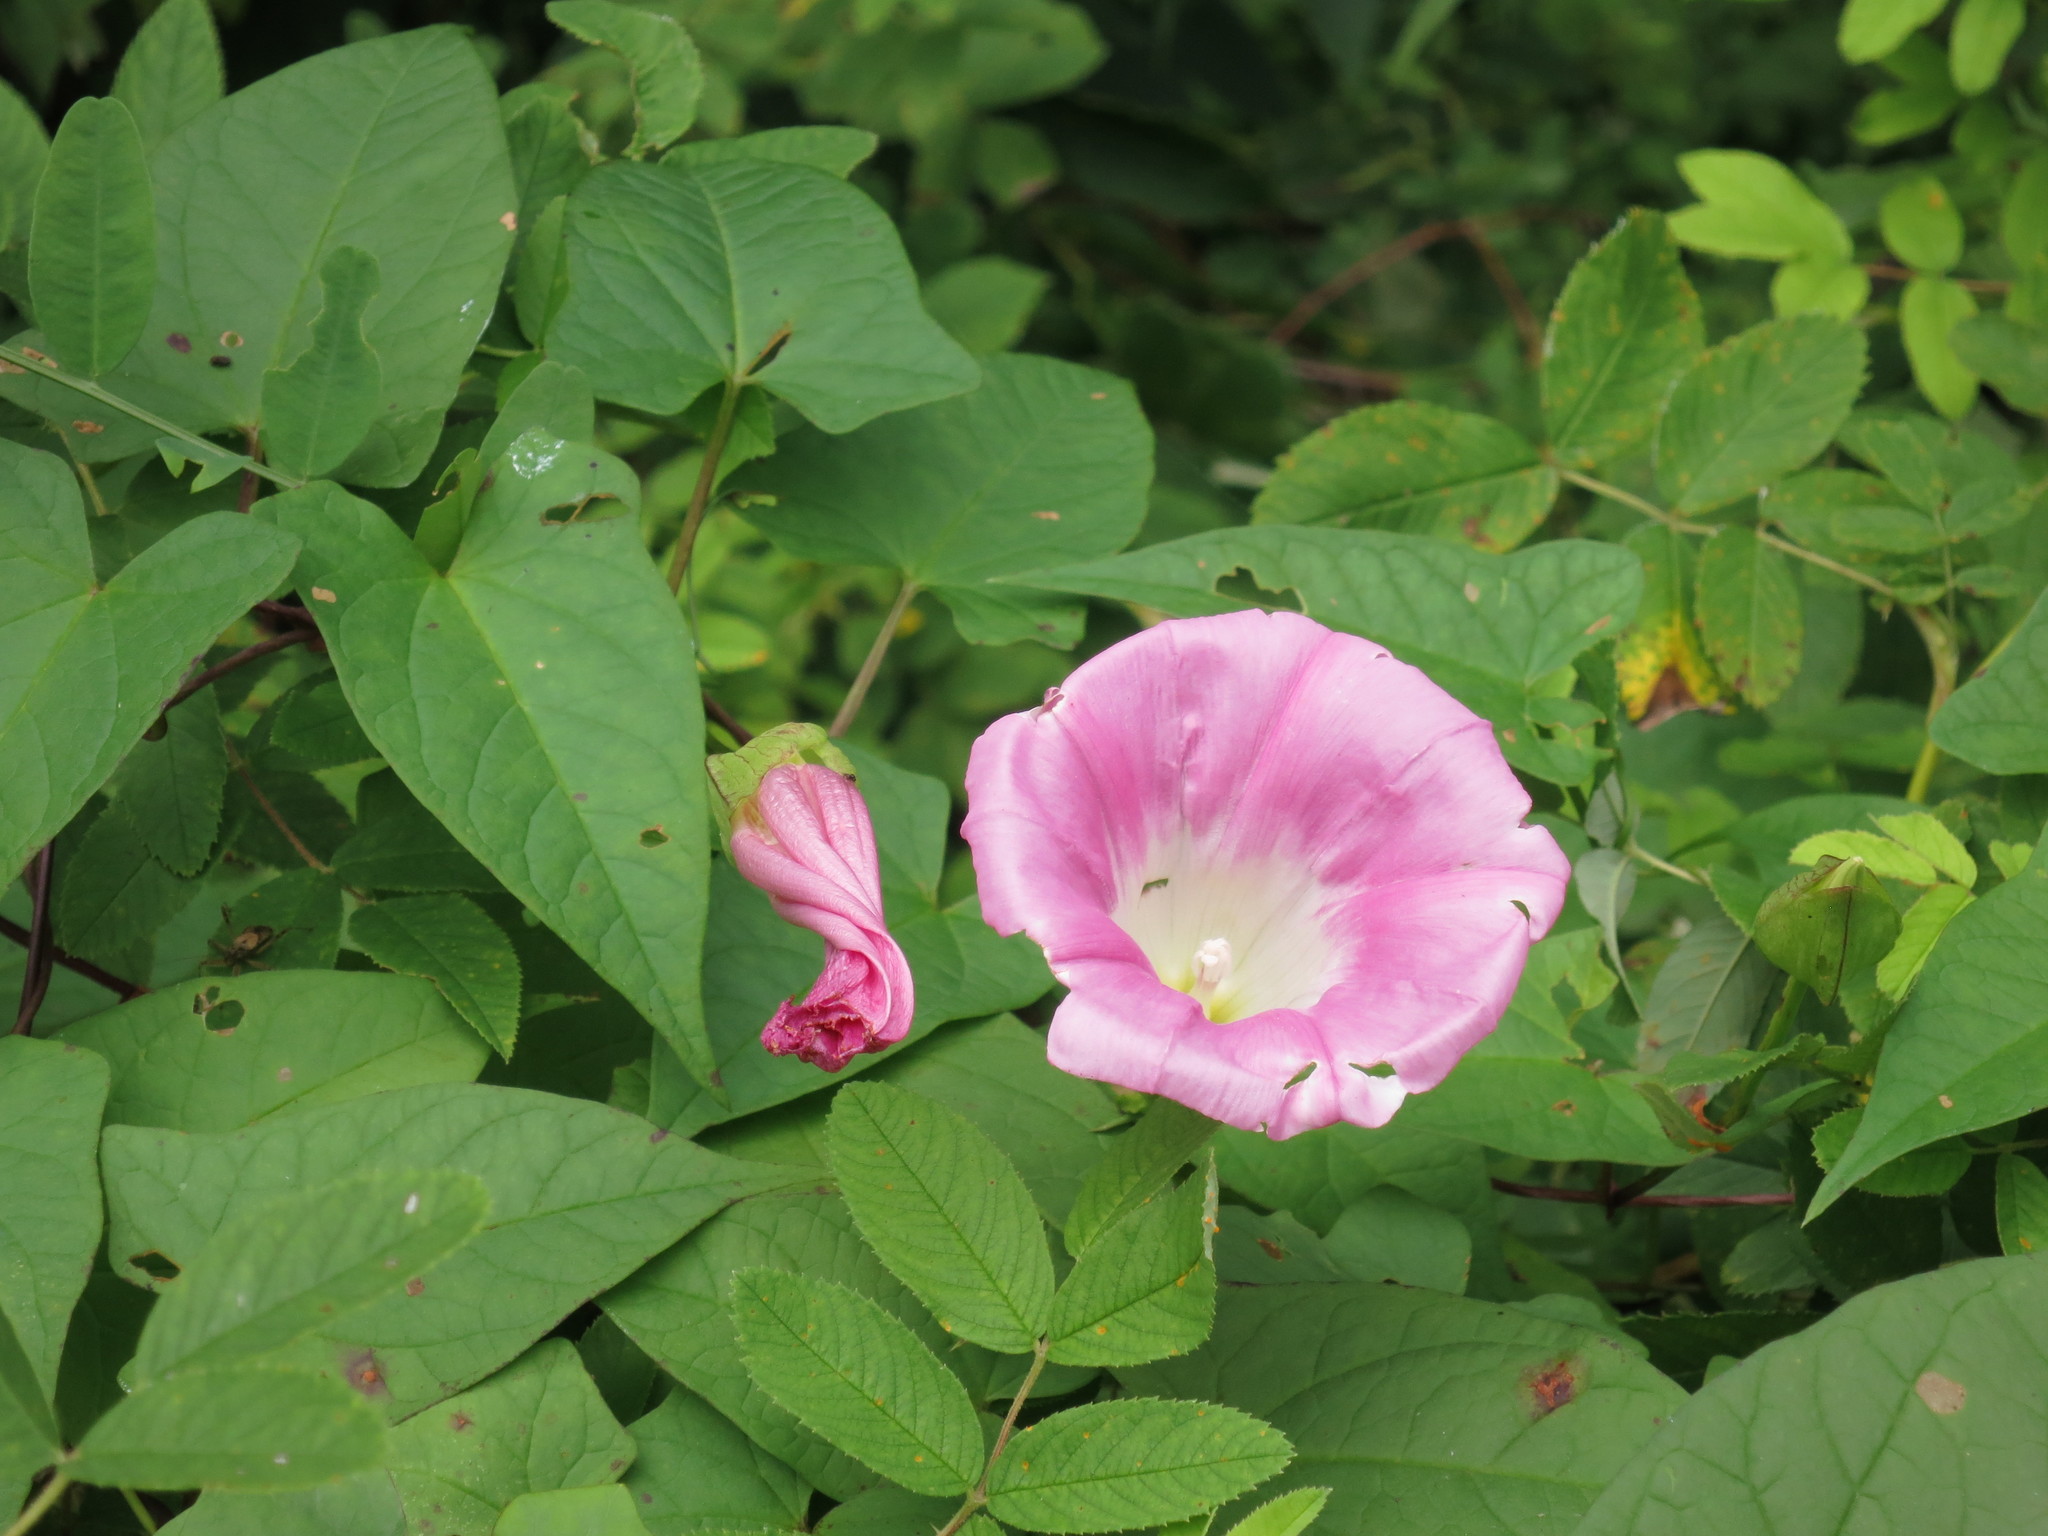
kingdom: Plantae
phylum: Tracheophyta
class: Magnoliopsida
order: Solanales
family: Convolvulaceae
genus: Calystegia
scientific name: Calystegia sepium
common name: Hedge bindweed
